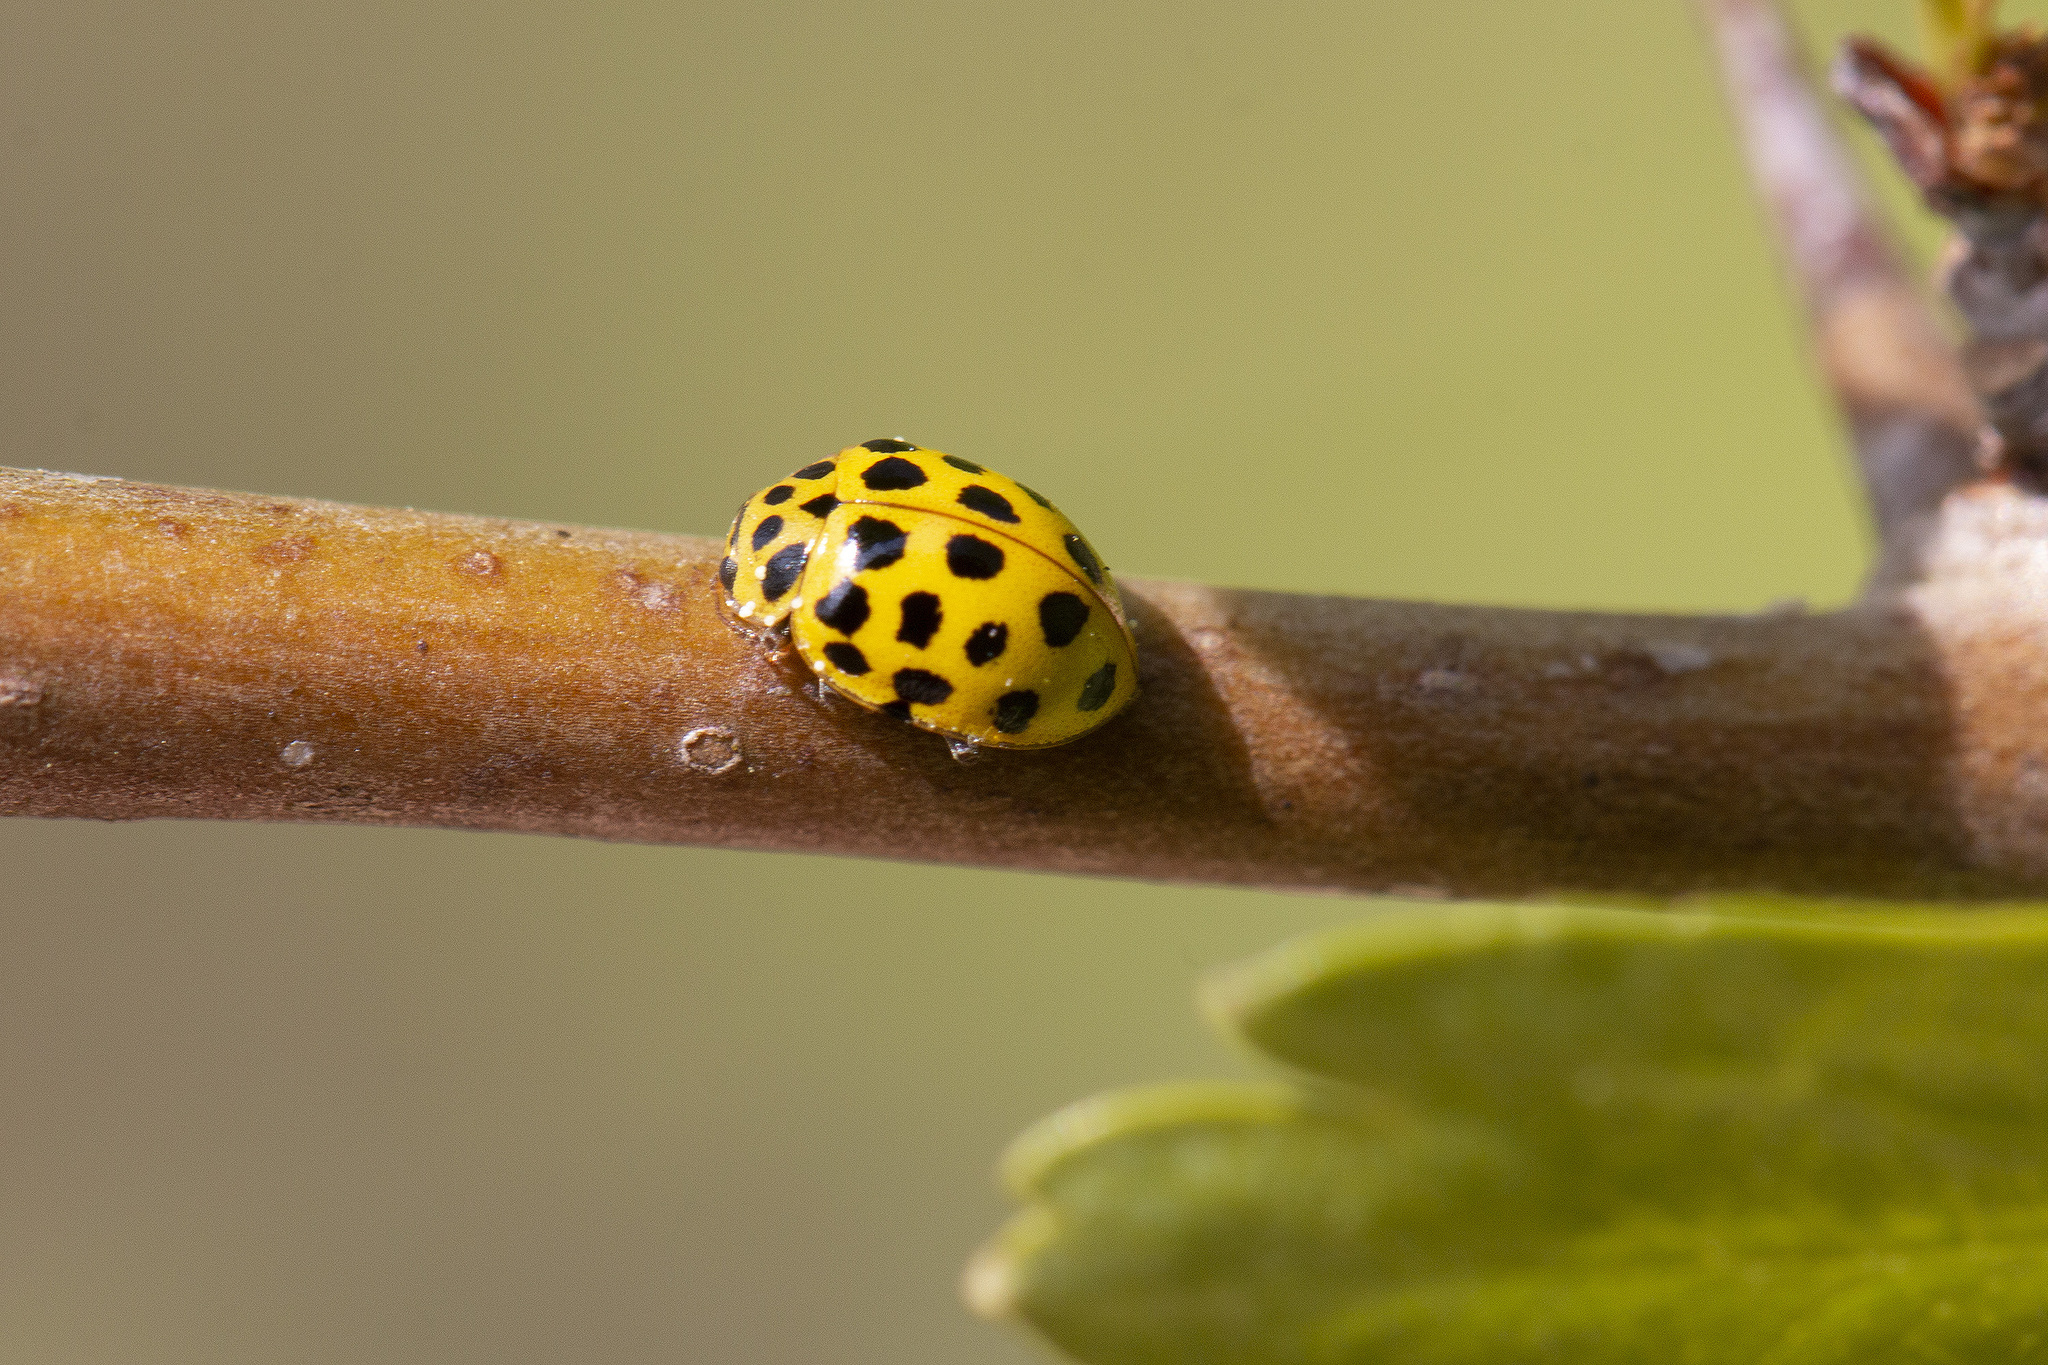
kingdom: Animalia
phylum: Arthropoda
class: Insecta
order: Coleoptera
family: Coccinellidae
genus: Psyllobora
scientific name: Psyllobora vigintiduopunctata
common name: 22-spot ladybird
